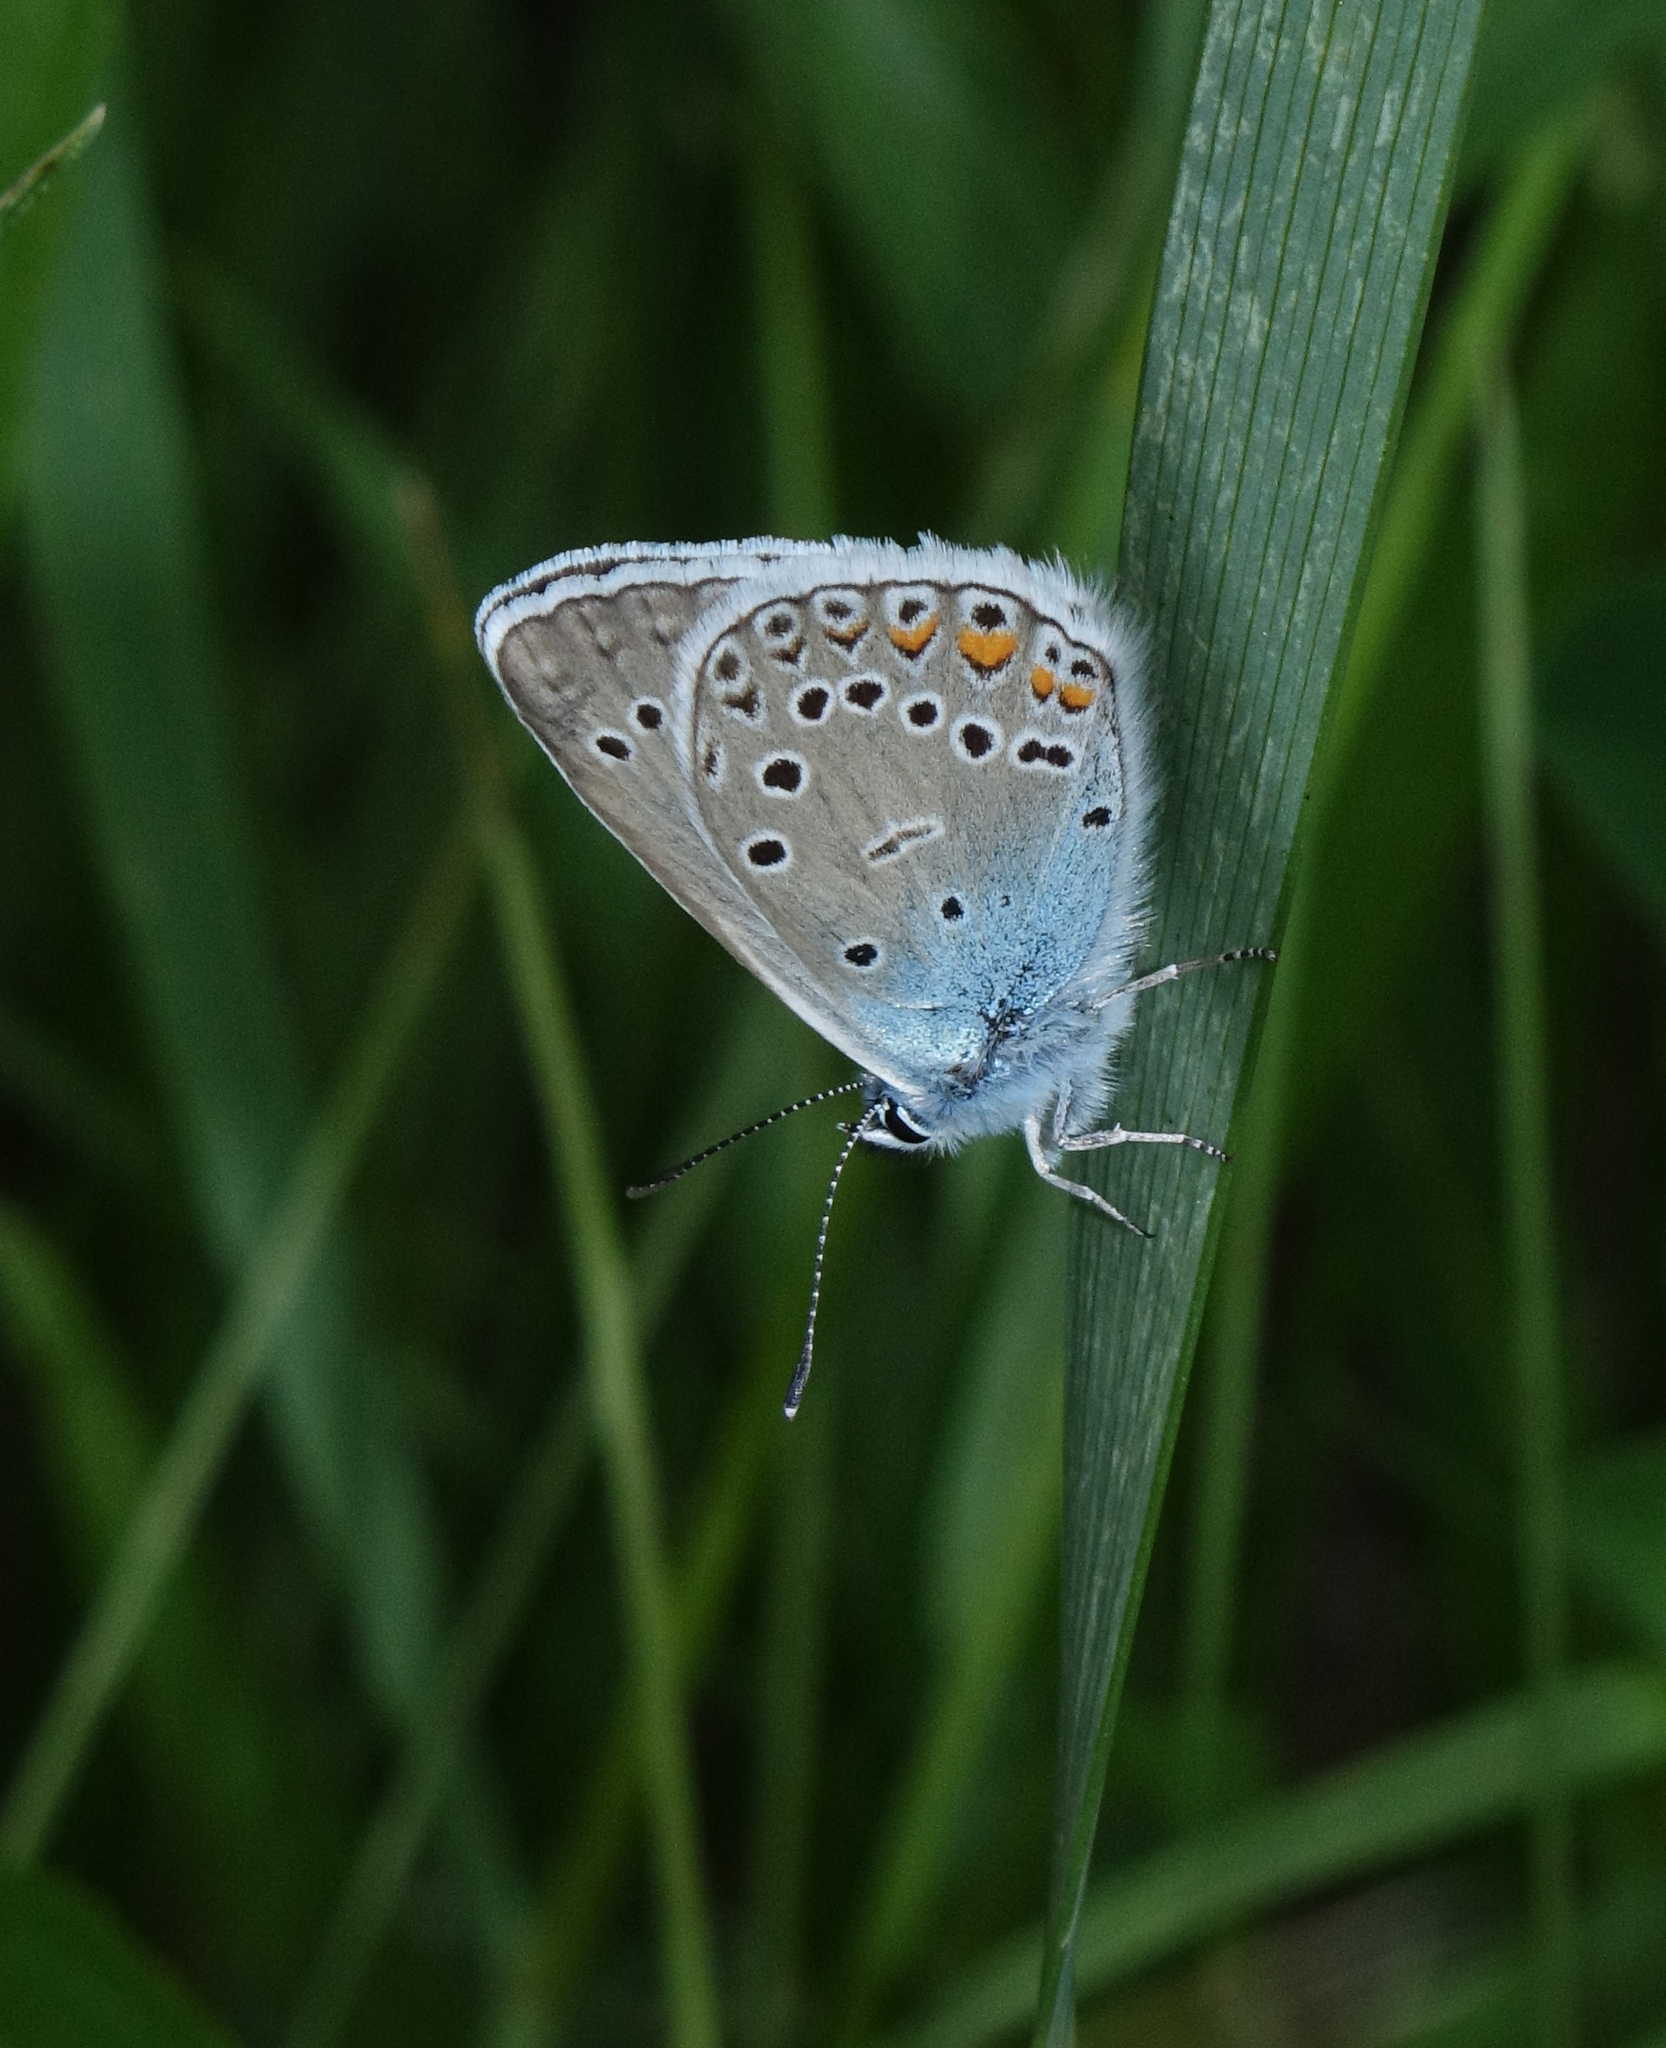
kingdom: Animalia
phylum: Arthropoda
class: Insecta
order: Lepidoptera
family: Lycaenidae
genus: Plebejus
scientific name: Plebejus amanda
